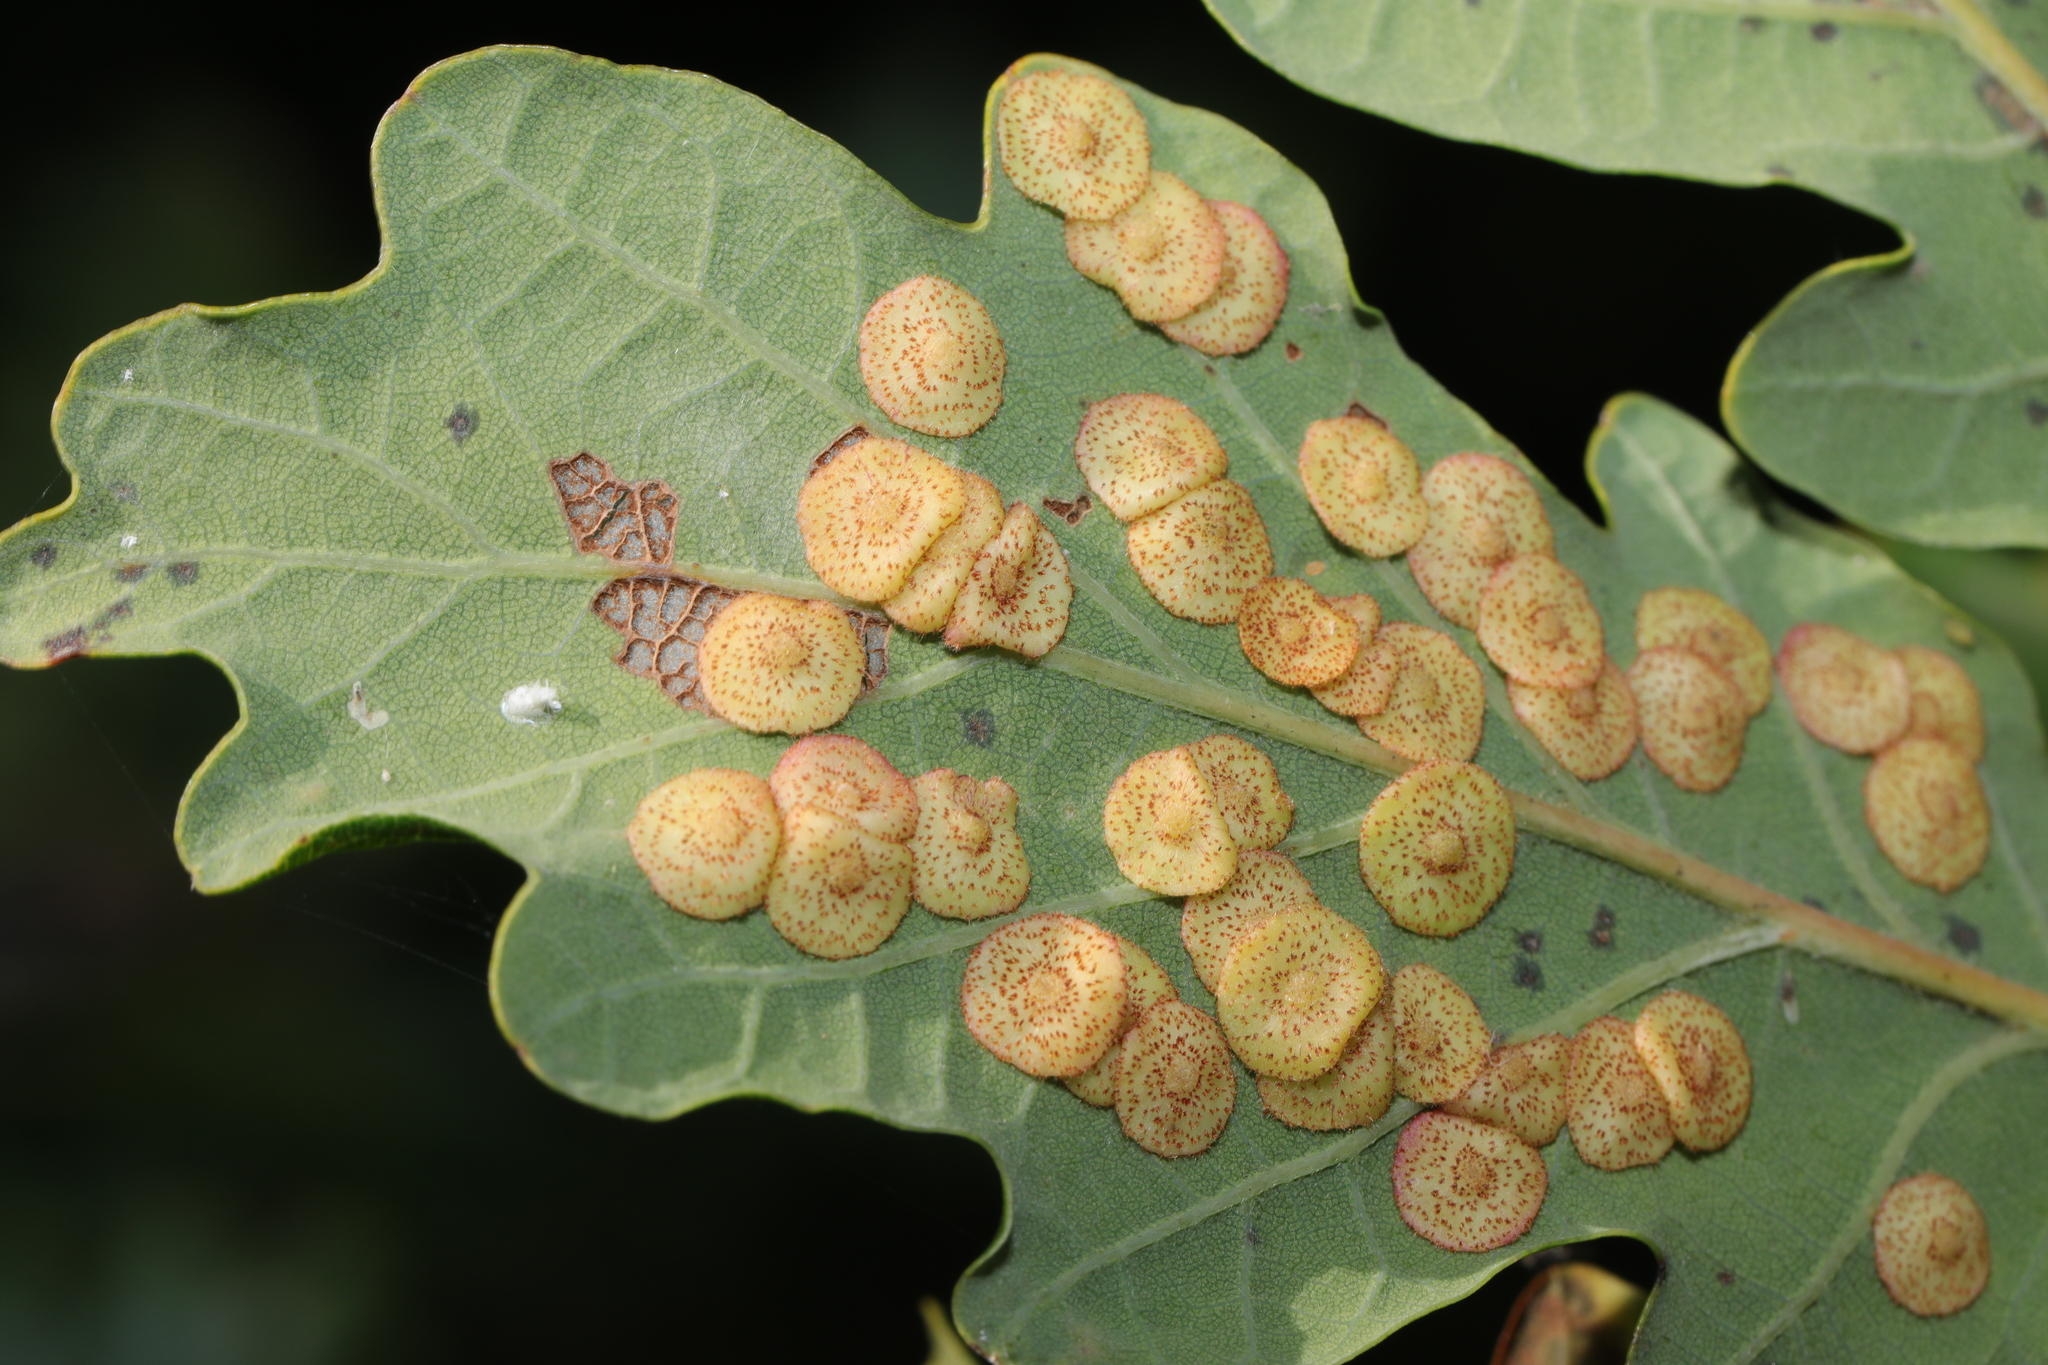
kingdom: Animalia
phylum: Arthropoda
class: Insecta
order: Hymenoptera
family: Cynipidae
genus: Neuroterus
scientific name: Neuroterus quercusbaccarum
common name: Common spangle gall
